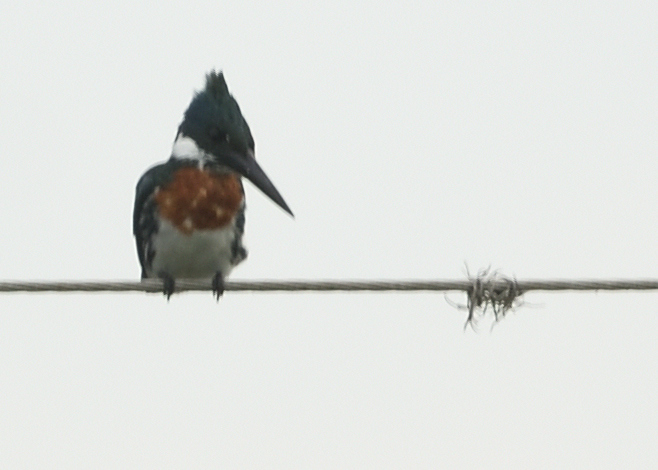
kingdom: Animalia
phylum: Chordata
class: Aves
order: Coraciiformes
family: Alcedinidae
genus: Chloroceryle
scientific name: Chloroceryle amazona
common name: Amazon kingfisher
